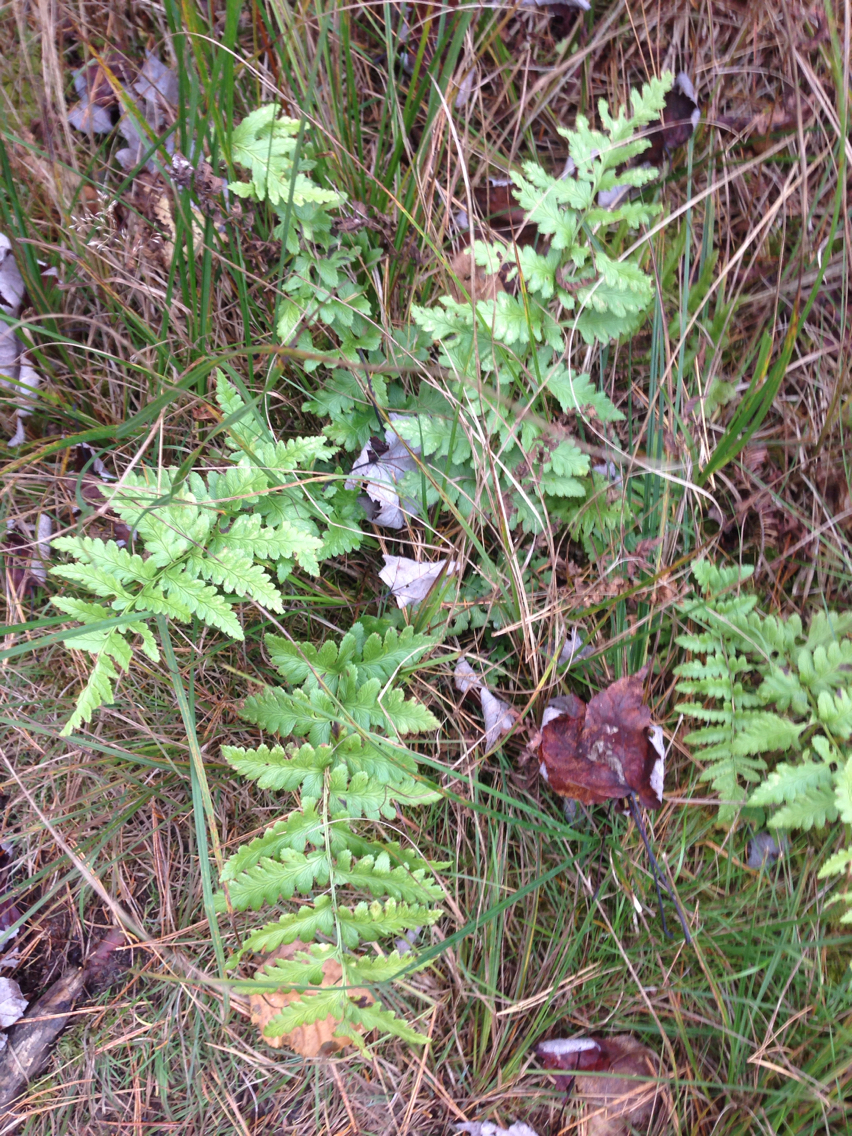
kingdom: Plantae
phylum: Tracheophyta
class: Polypodiopsida
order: Polypodiales
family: Dryopteridaceae
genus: Dryopteris
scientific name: Dryopteris cristata
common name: Crested wood fern
